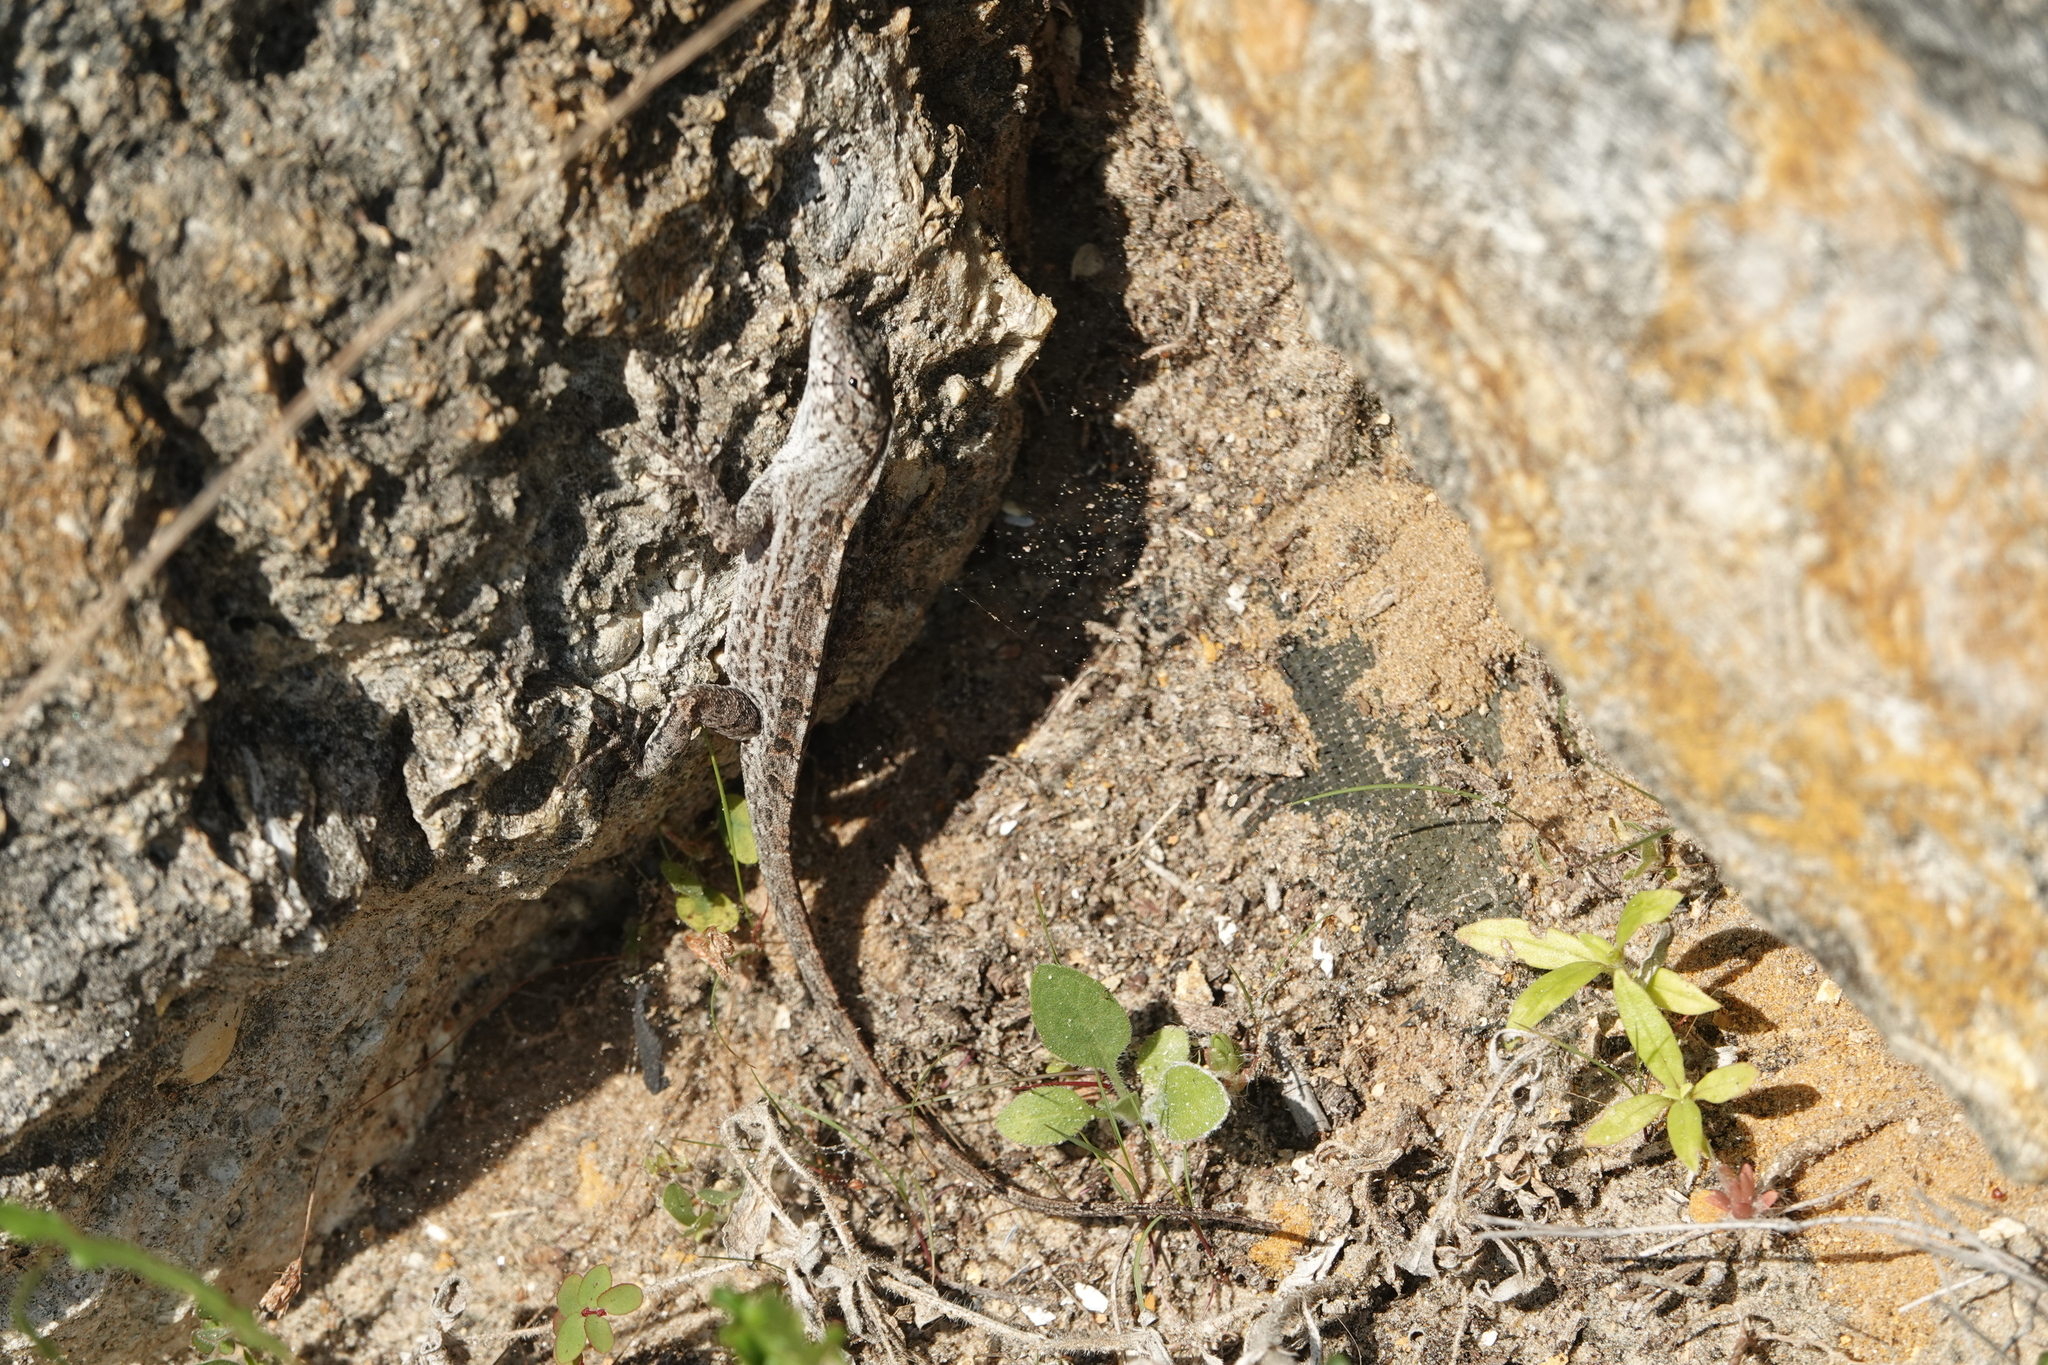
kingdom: Animalia
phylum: Chordata
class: Squamata
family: Dactyloidae
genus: Anolis
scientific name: Anolis sagrei
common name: Brown anole
